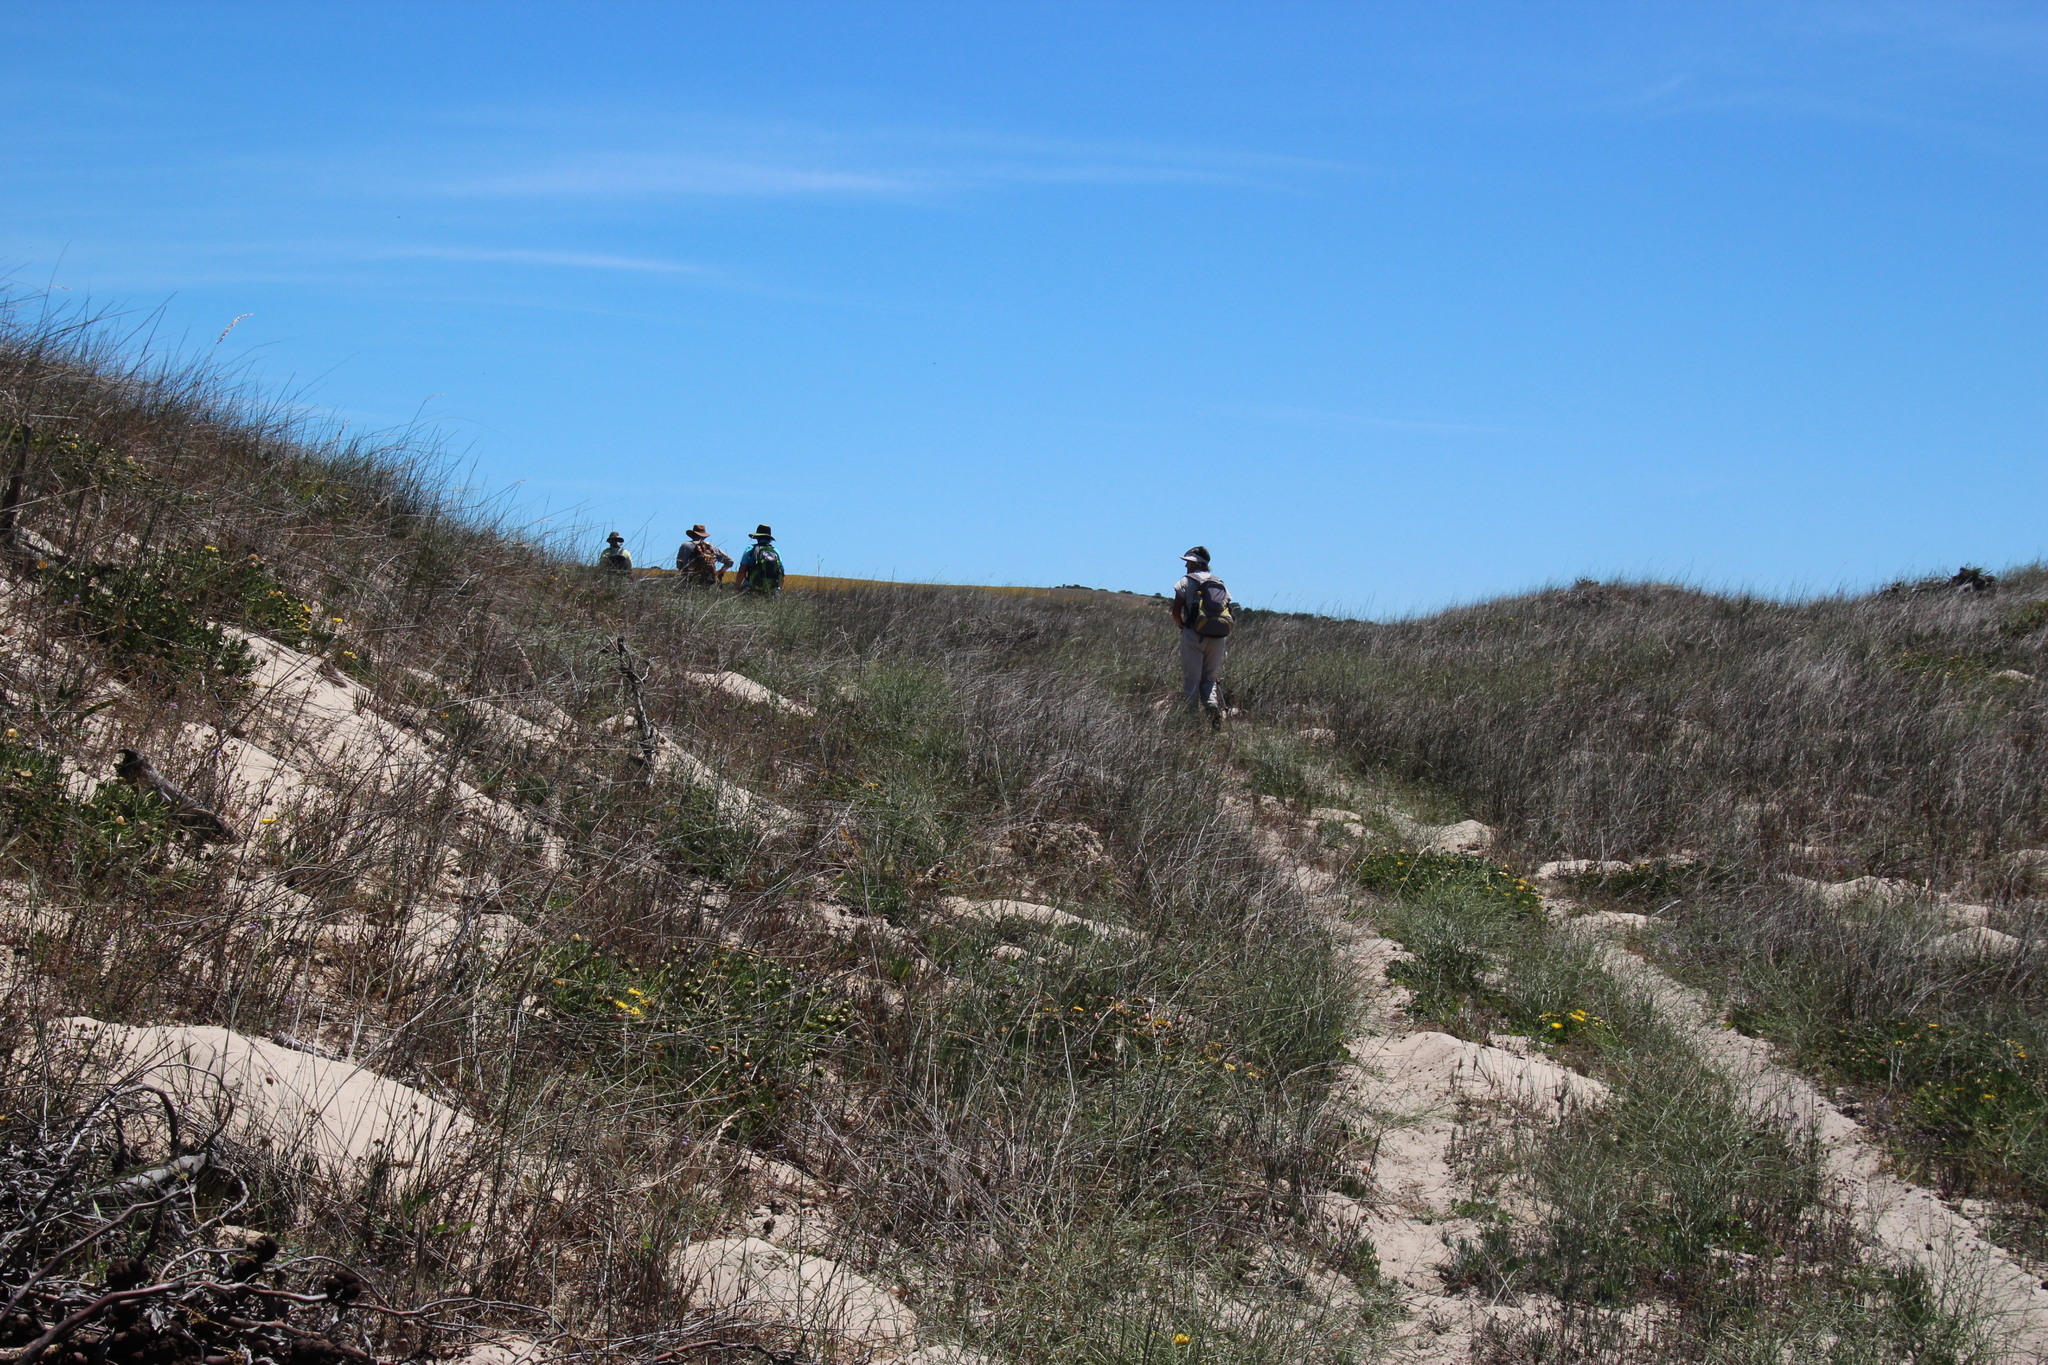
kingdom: Plantae
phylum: Tracheophyta
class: Magnoliopsida
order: Caryophyllales
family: Aizoaceae
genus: Conicosia
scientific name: Conicosia pugioniformis
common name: Narrow-leaved iceplant
